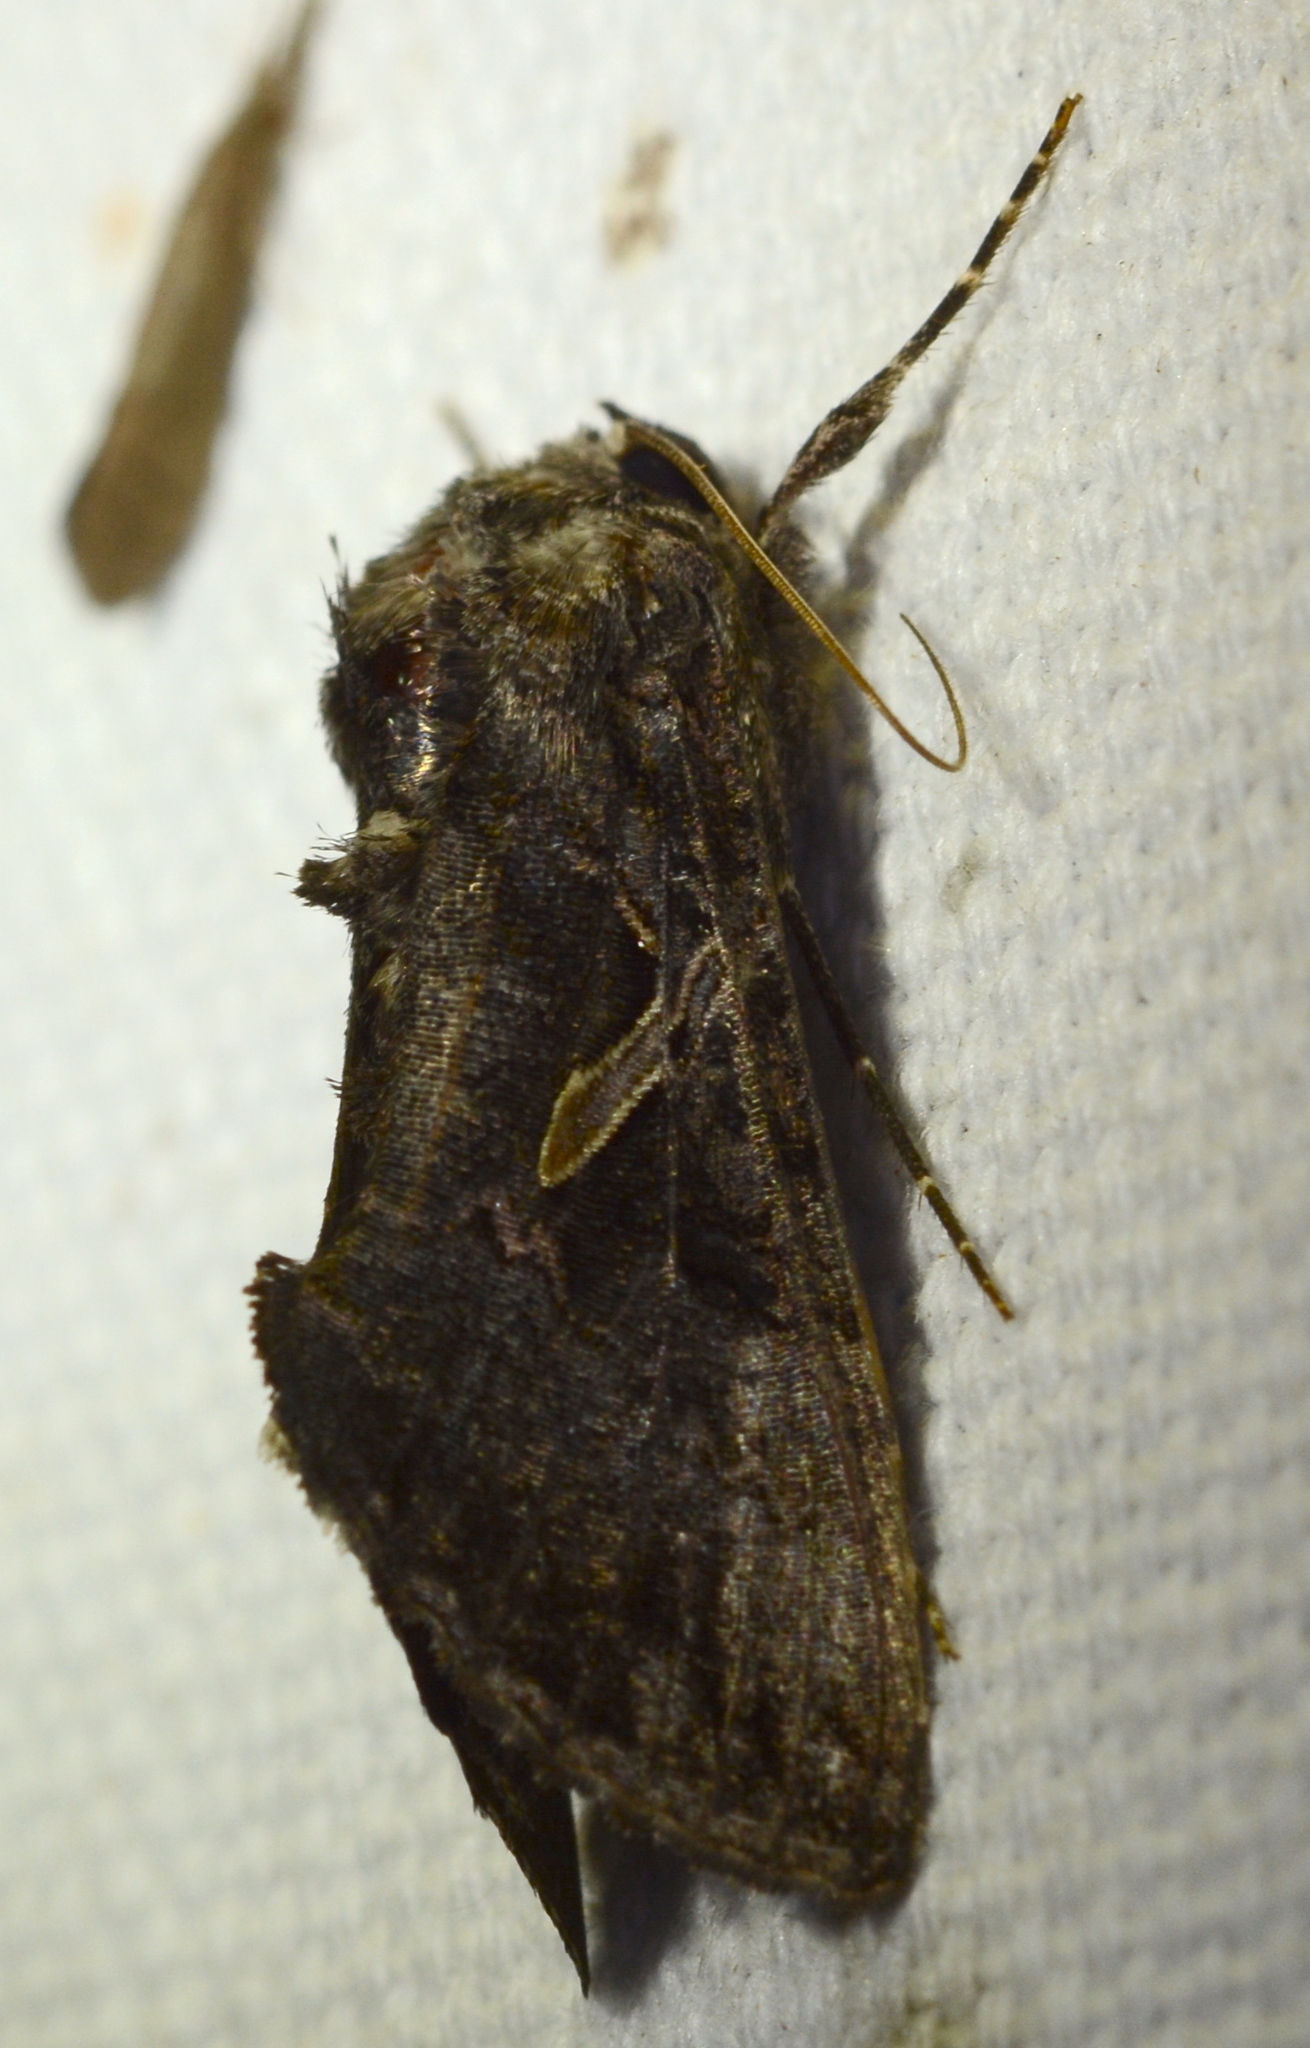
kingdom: Animalia
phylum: Arthropoda
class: Insecta
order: Lepidoptera
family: Noctuidae
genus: Ctenoplusia
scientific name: Ctenoplusia oxygramma
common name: Sharp-stigma looper moth
